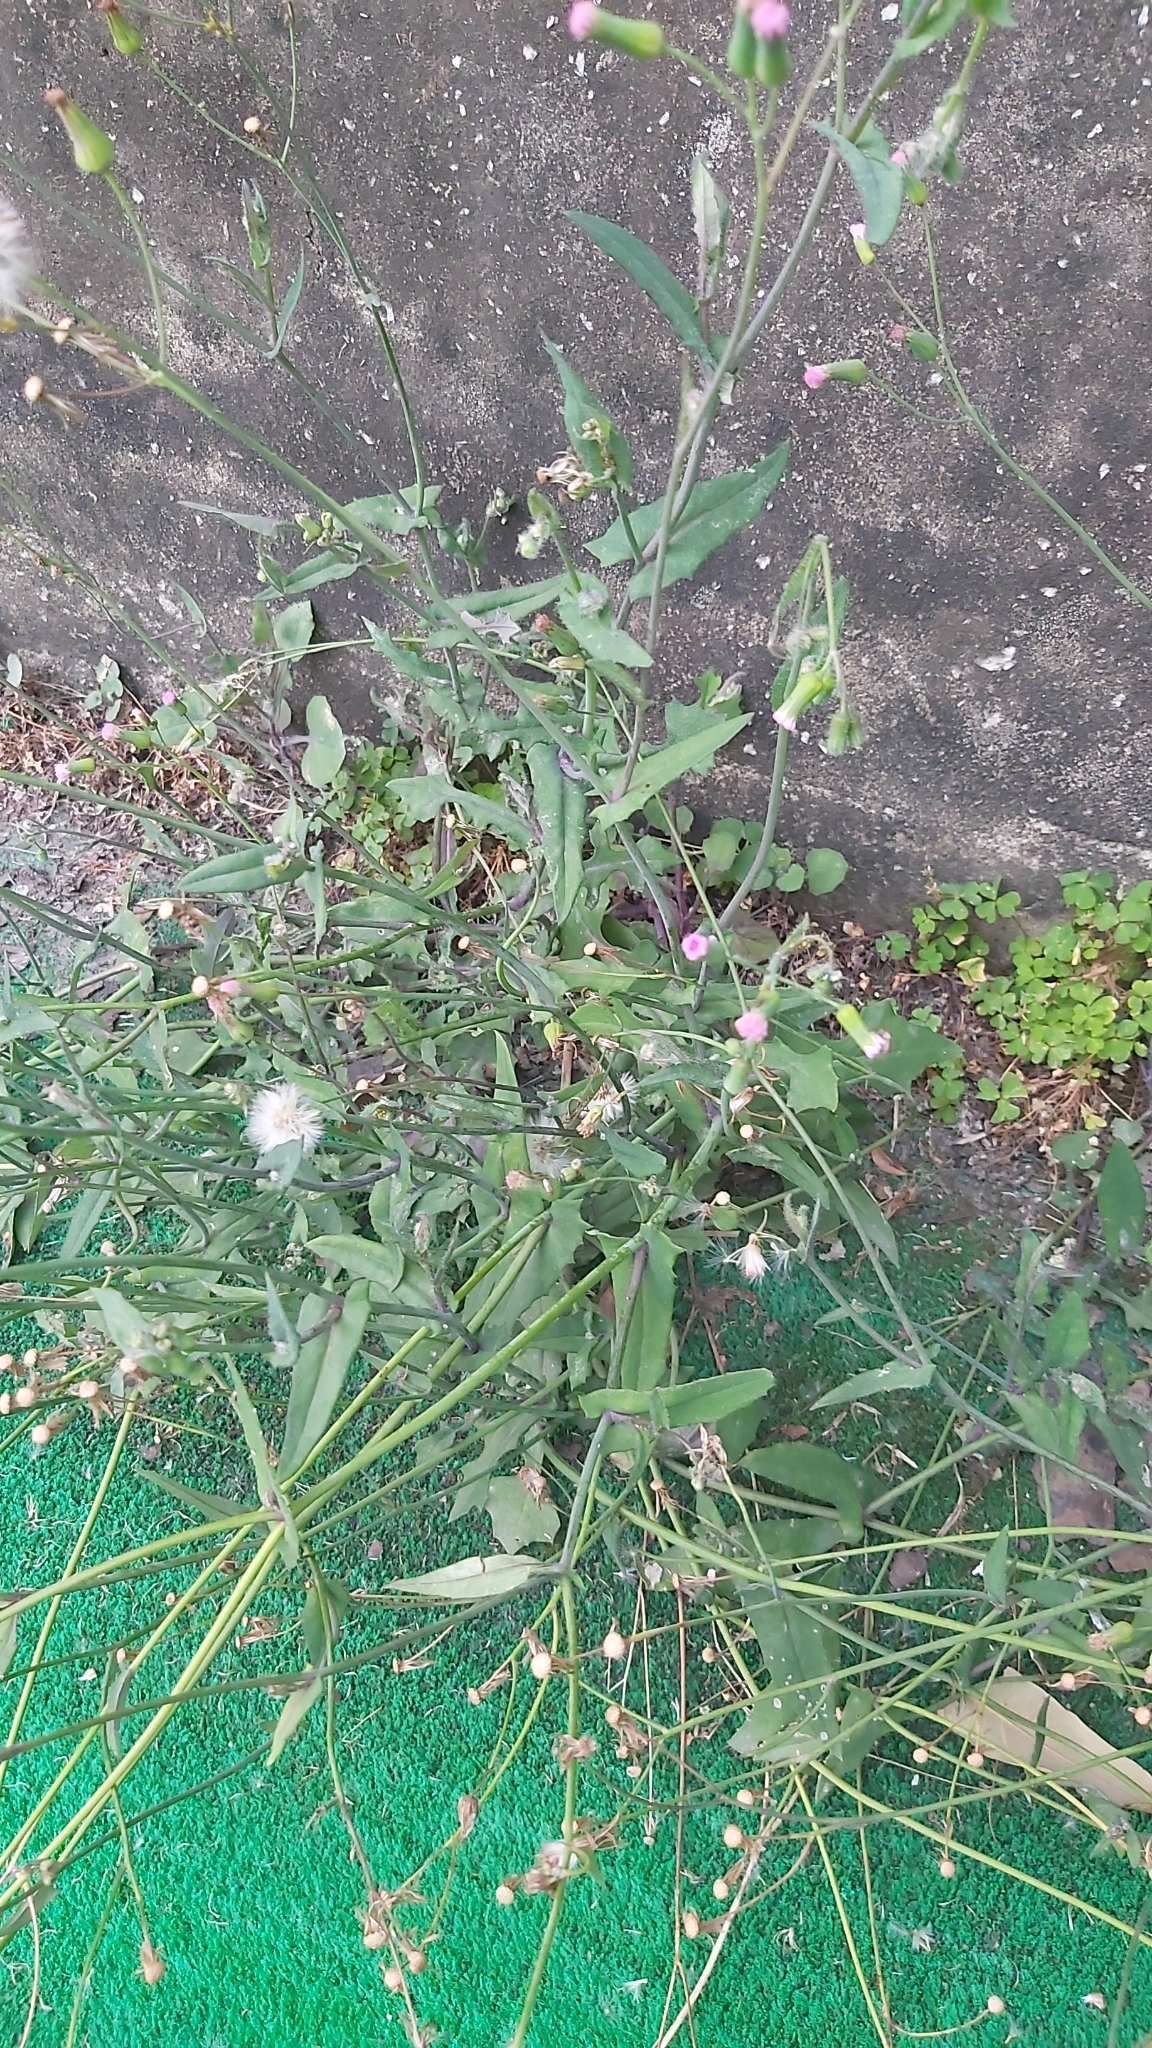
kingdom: Plantae
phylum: Tracheophyta
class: Magnoliopsida
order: Asterales
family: Asteraceae
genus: Emilia
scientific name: Emilia javanica
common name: Tassel-flower
